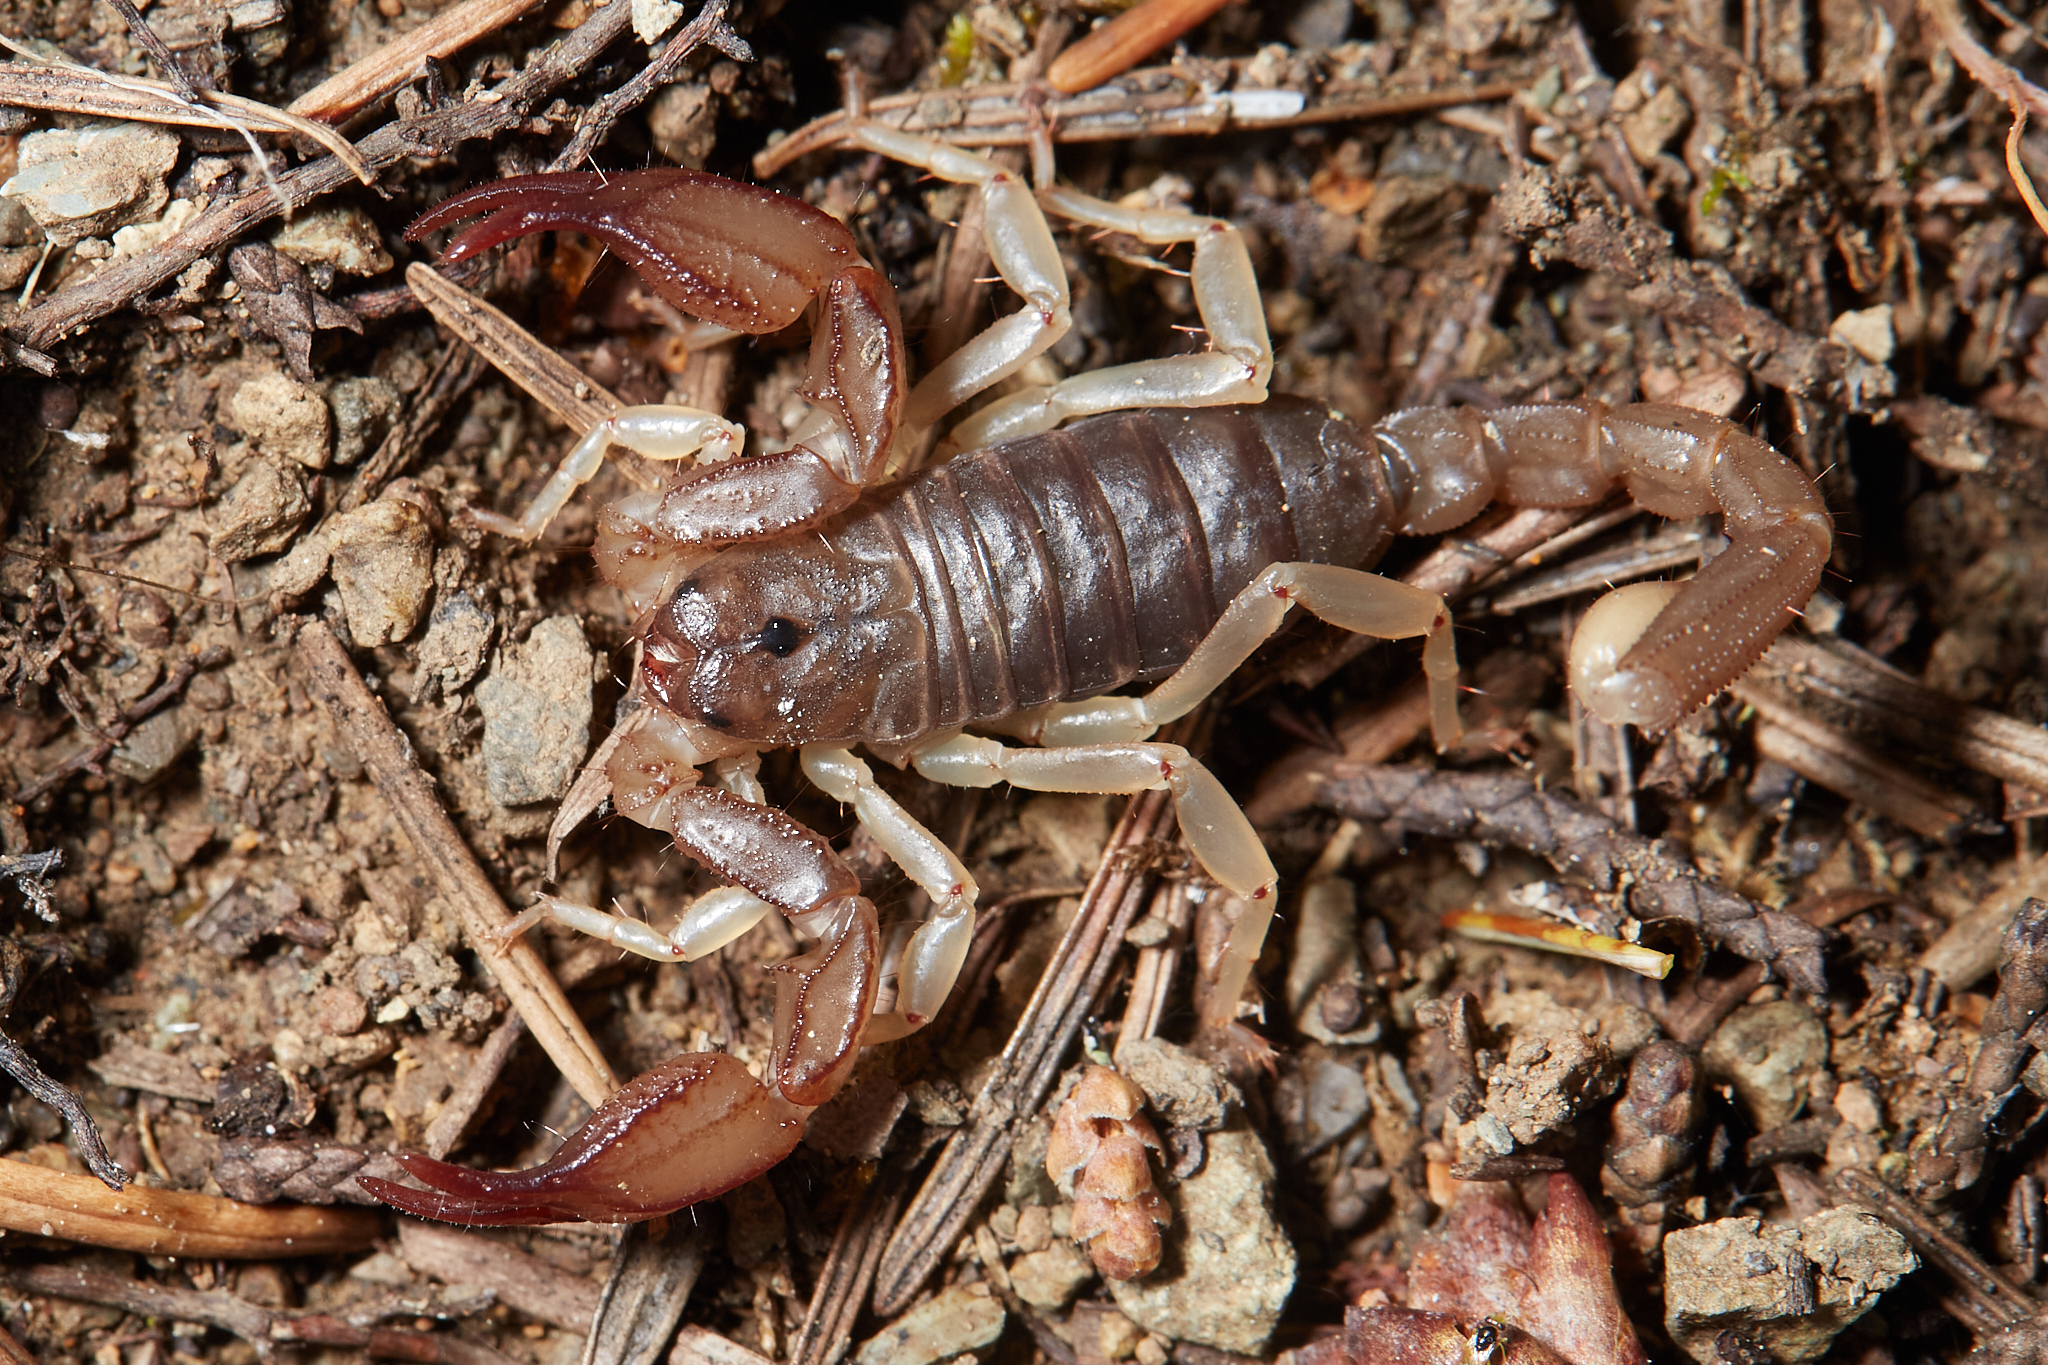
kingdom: Animalia
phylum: Arthropoda
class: Arachnida
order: Scorpiones
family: Chactidae
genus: Uroctonus
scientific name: Uroctonus mordax
